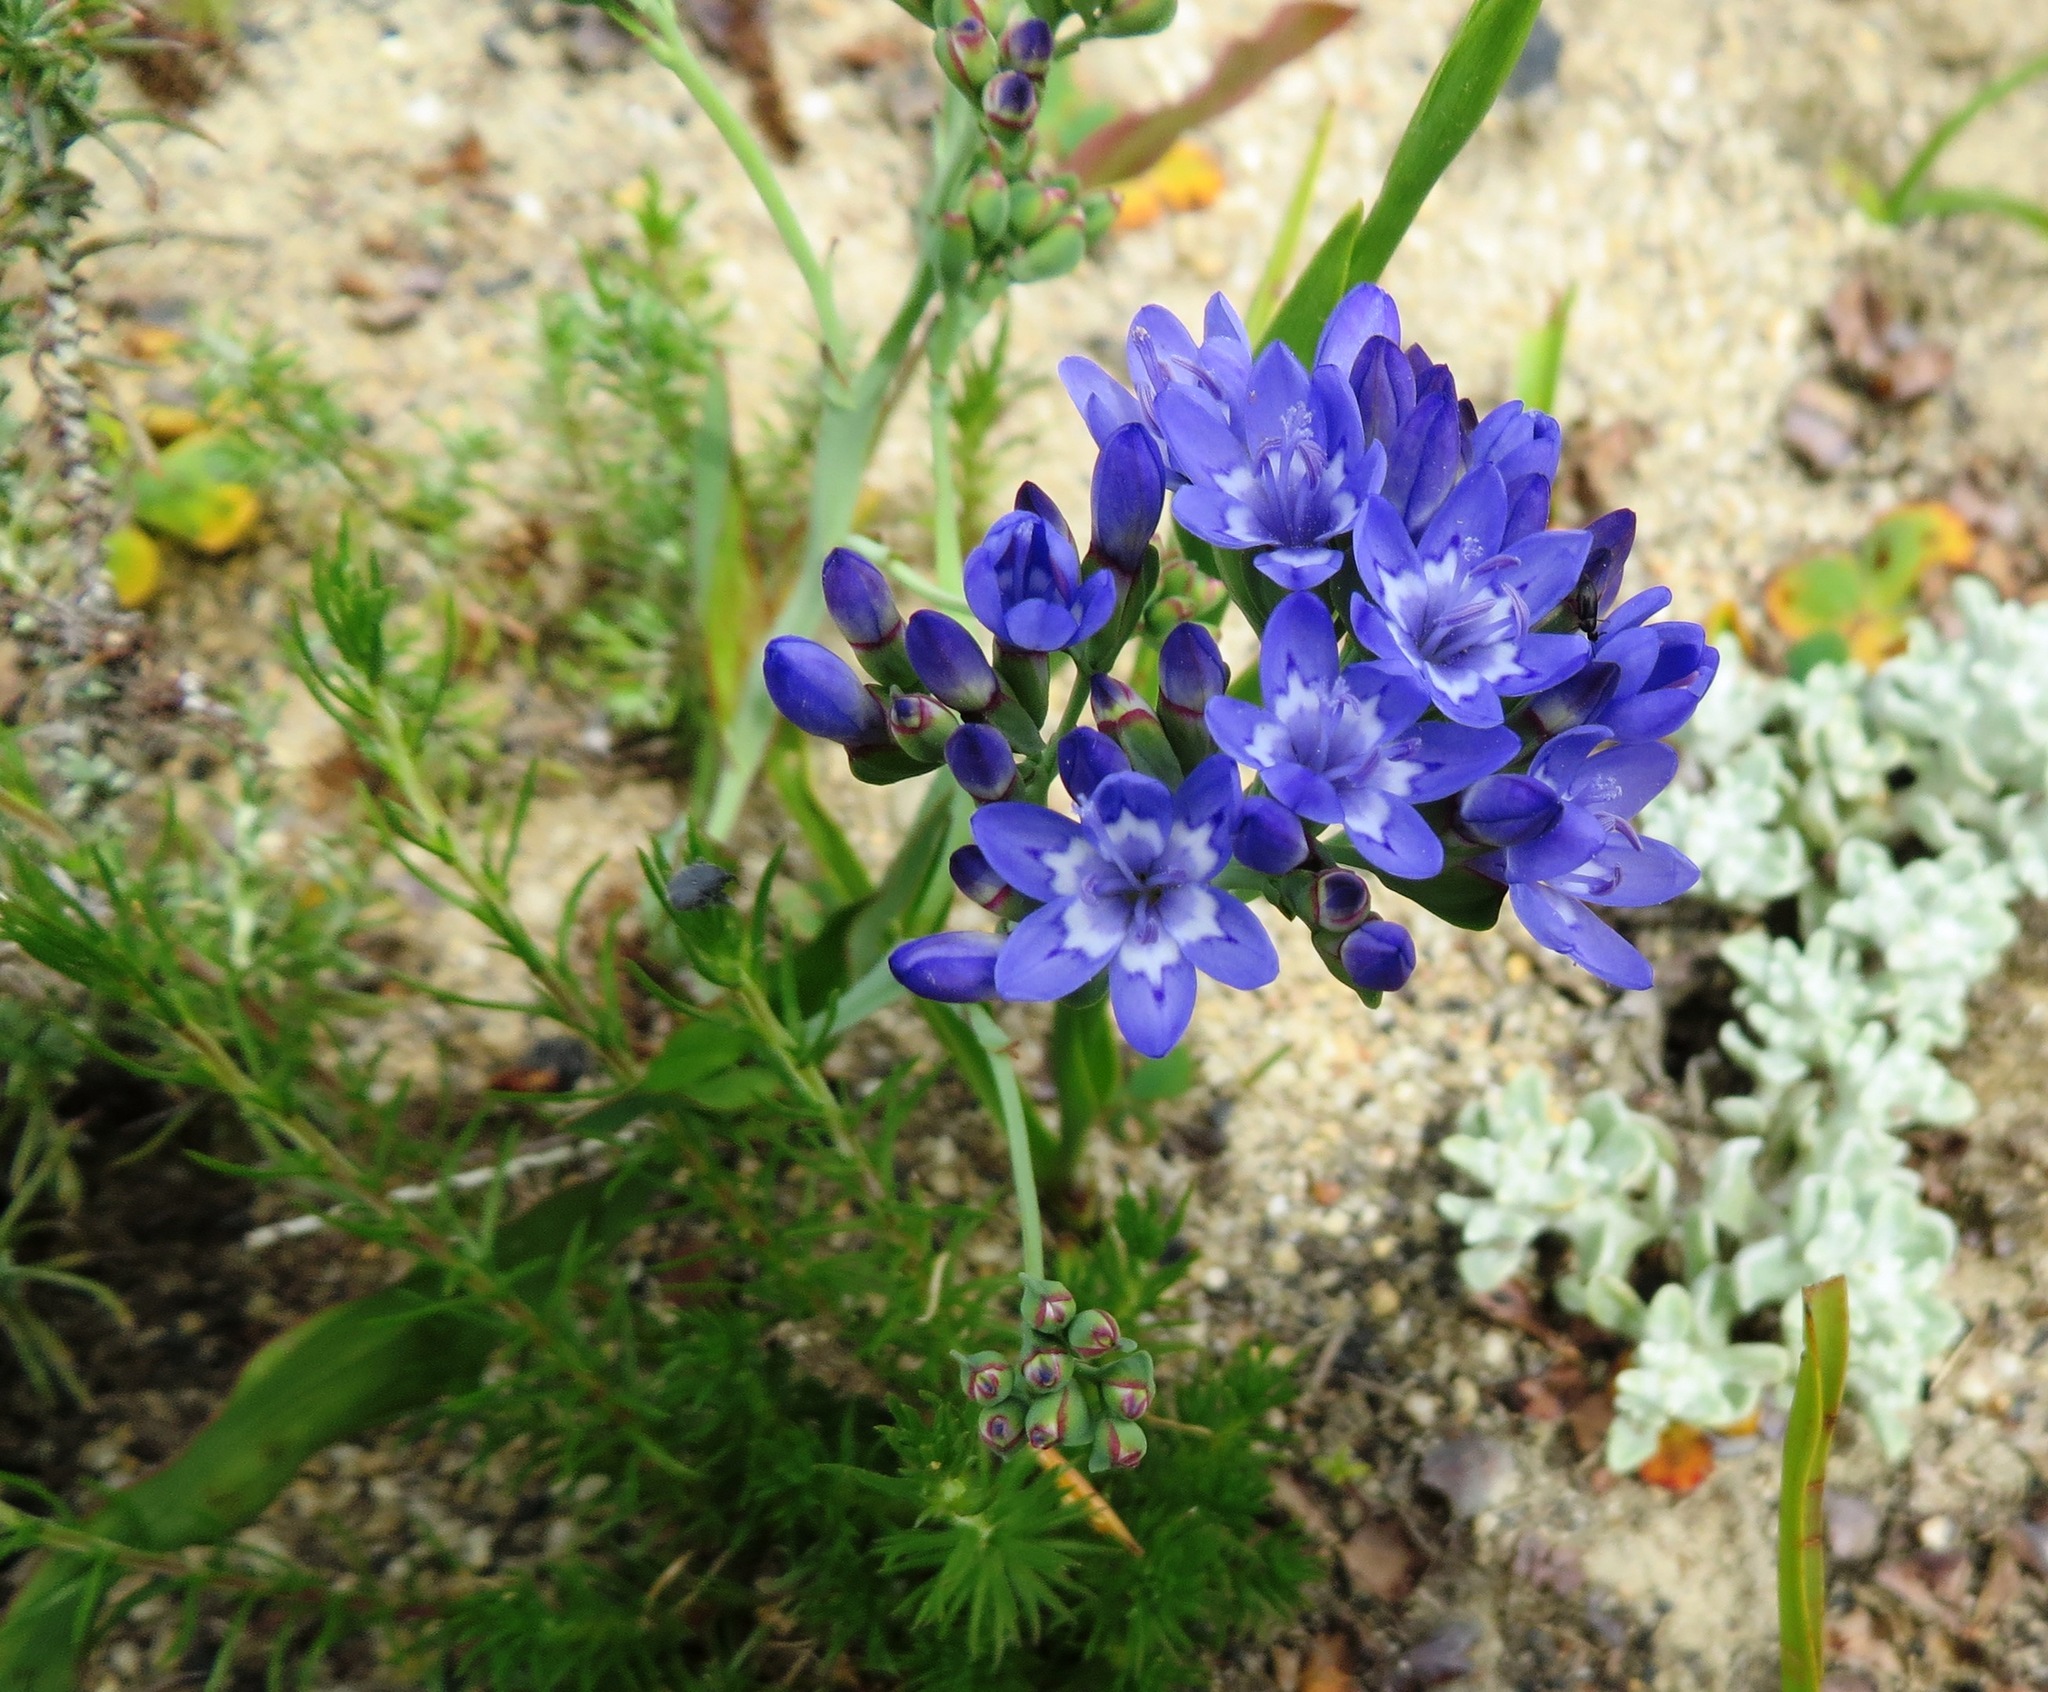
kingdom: Plantae
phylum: Tracheophyta
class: Liliopsida
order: Asparagales
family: Iridaceae
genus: Codonorhiza
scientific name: Codonorhiza corymbosa
